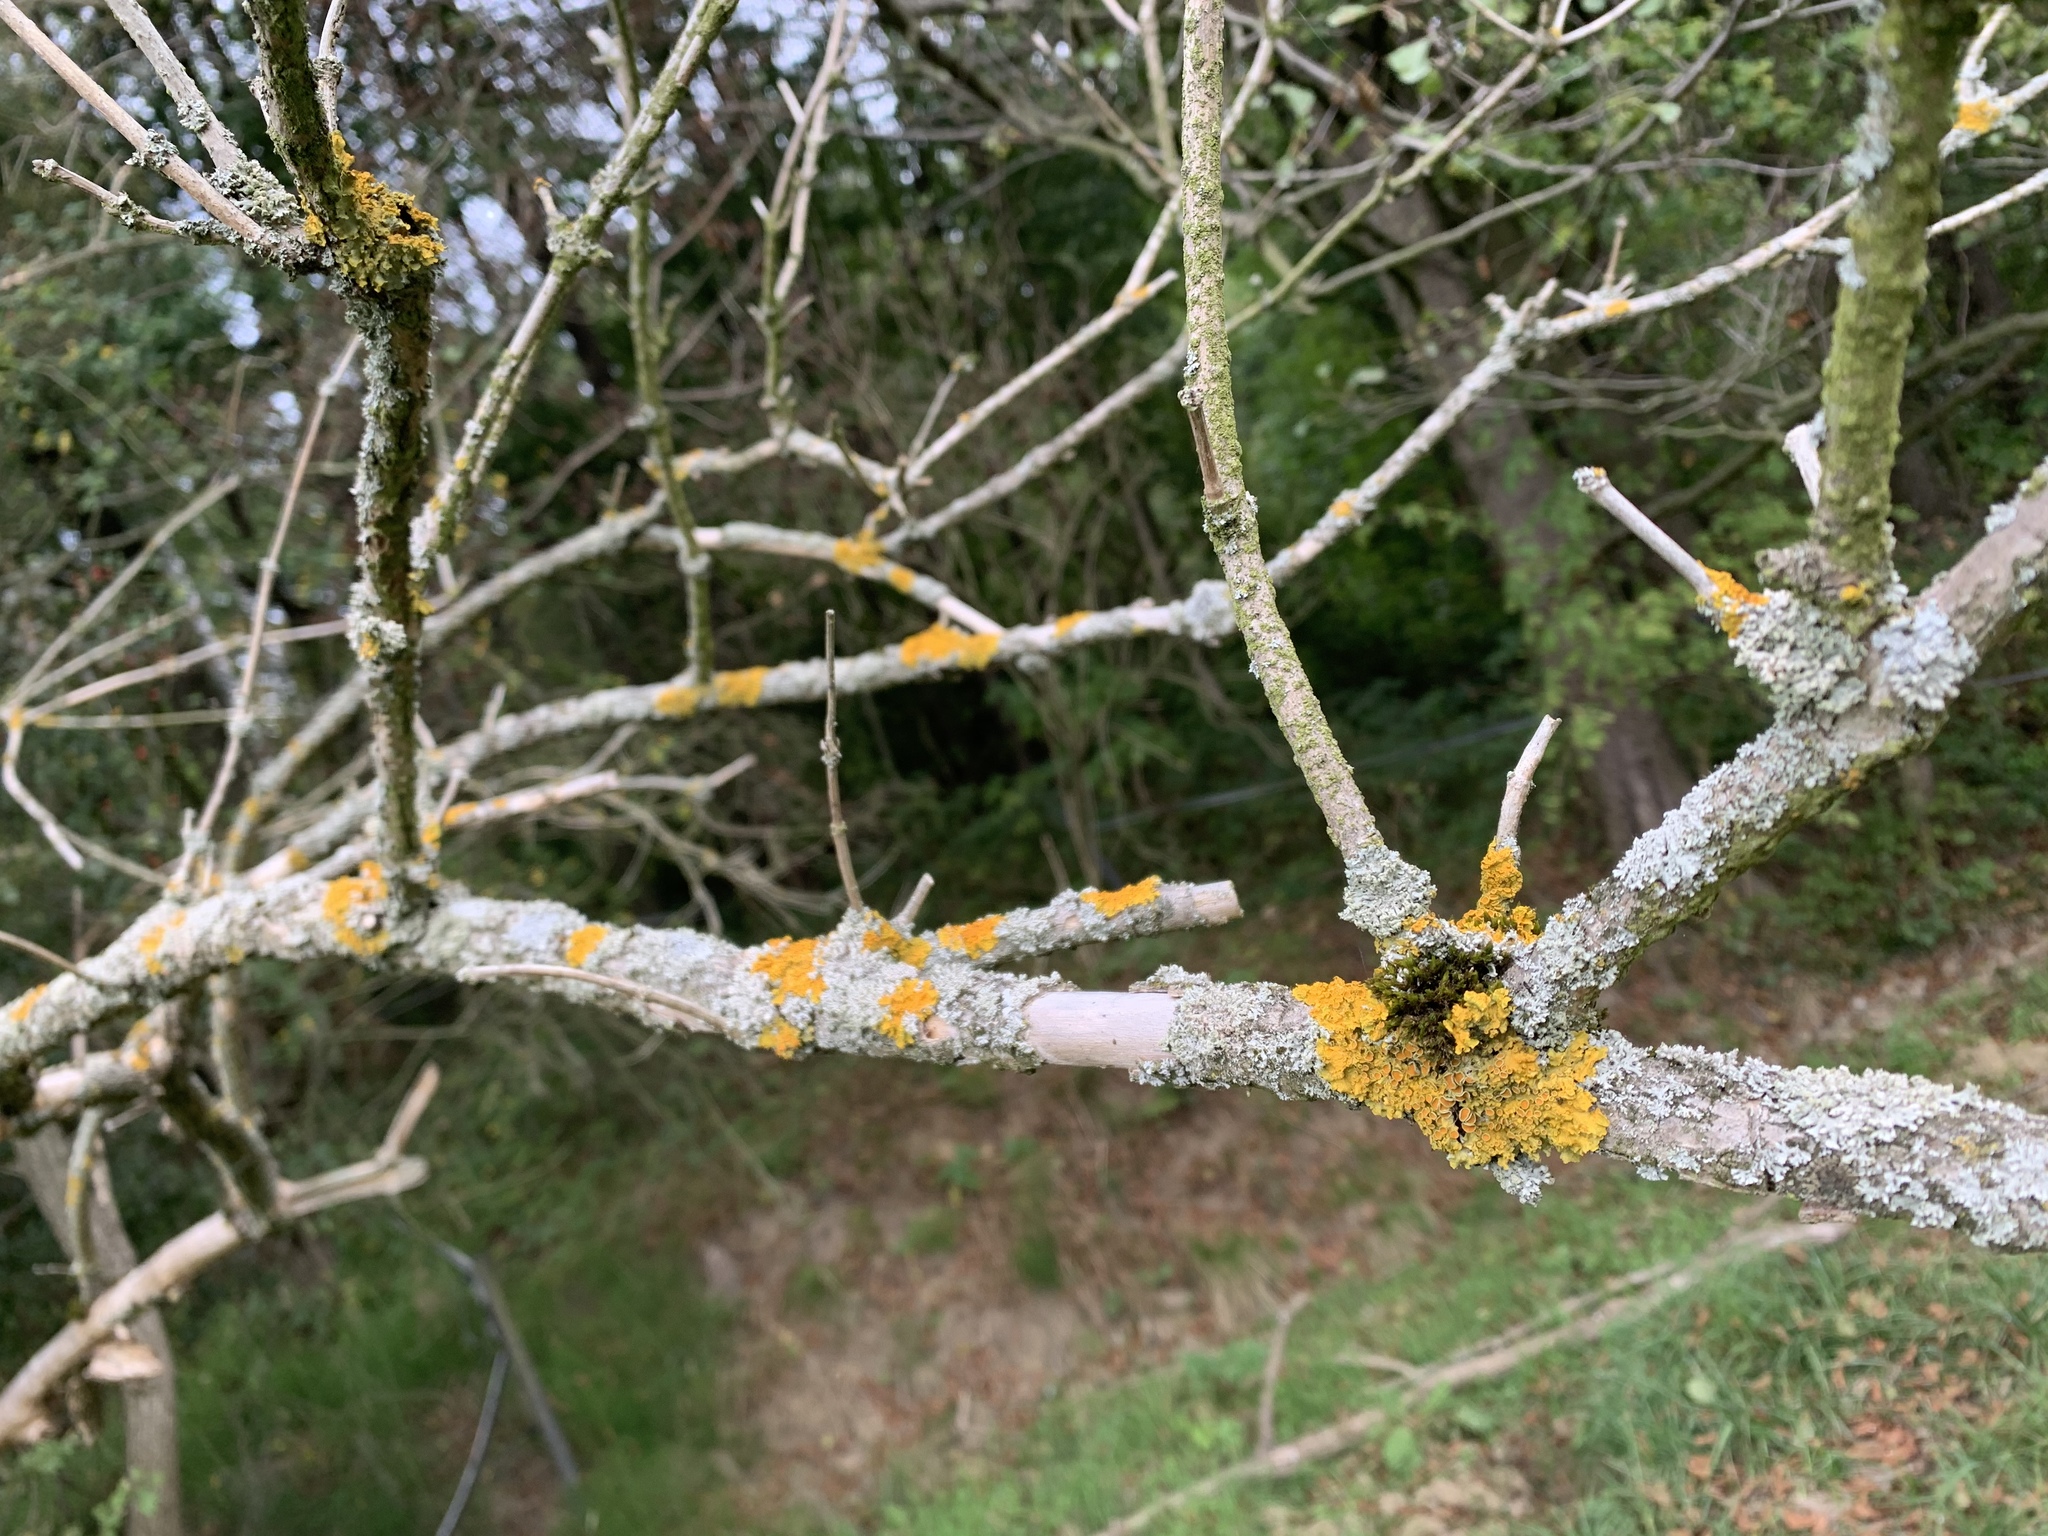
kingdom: Fungi
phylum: Ascomycota
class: Lecanoromycetes
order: Teloschistales
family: Teloschistaceae
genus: Xanthoria
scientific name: Xanthoria parietina
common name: Common orange lichen
